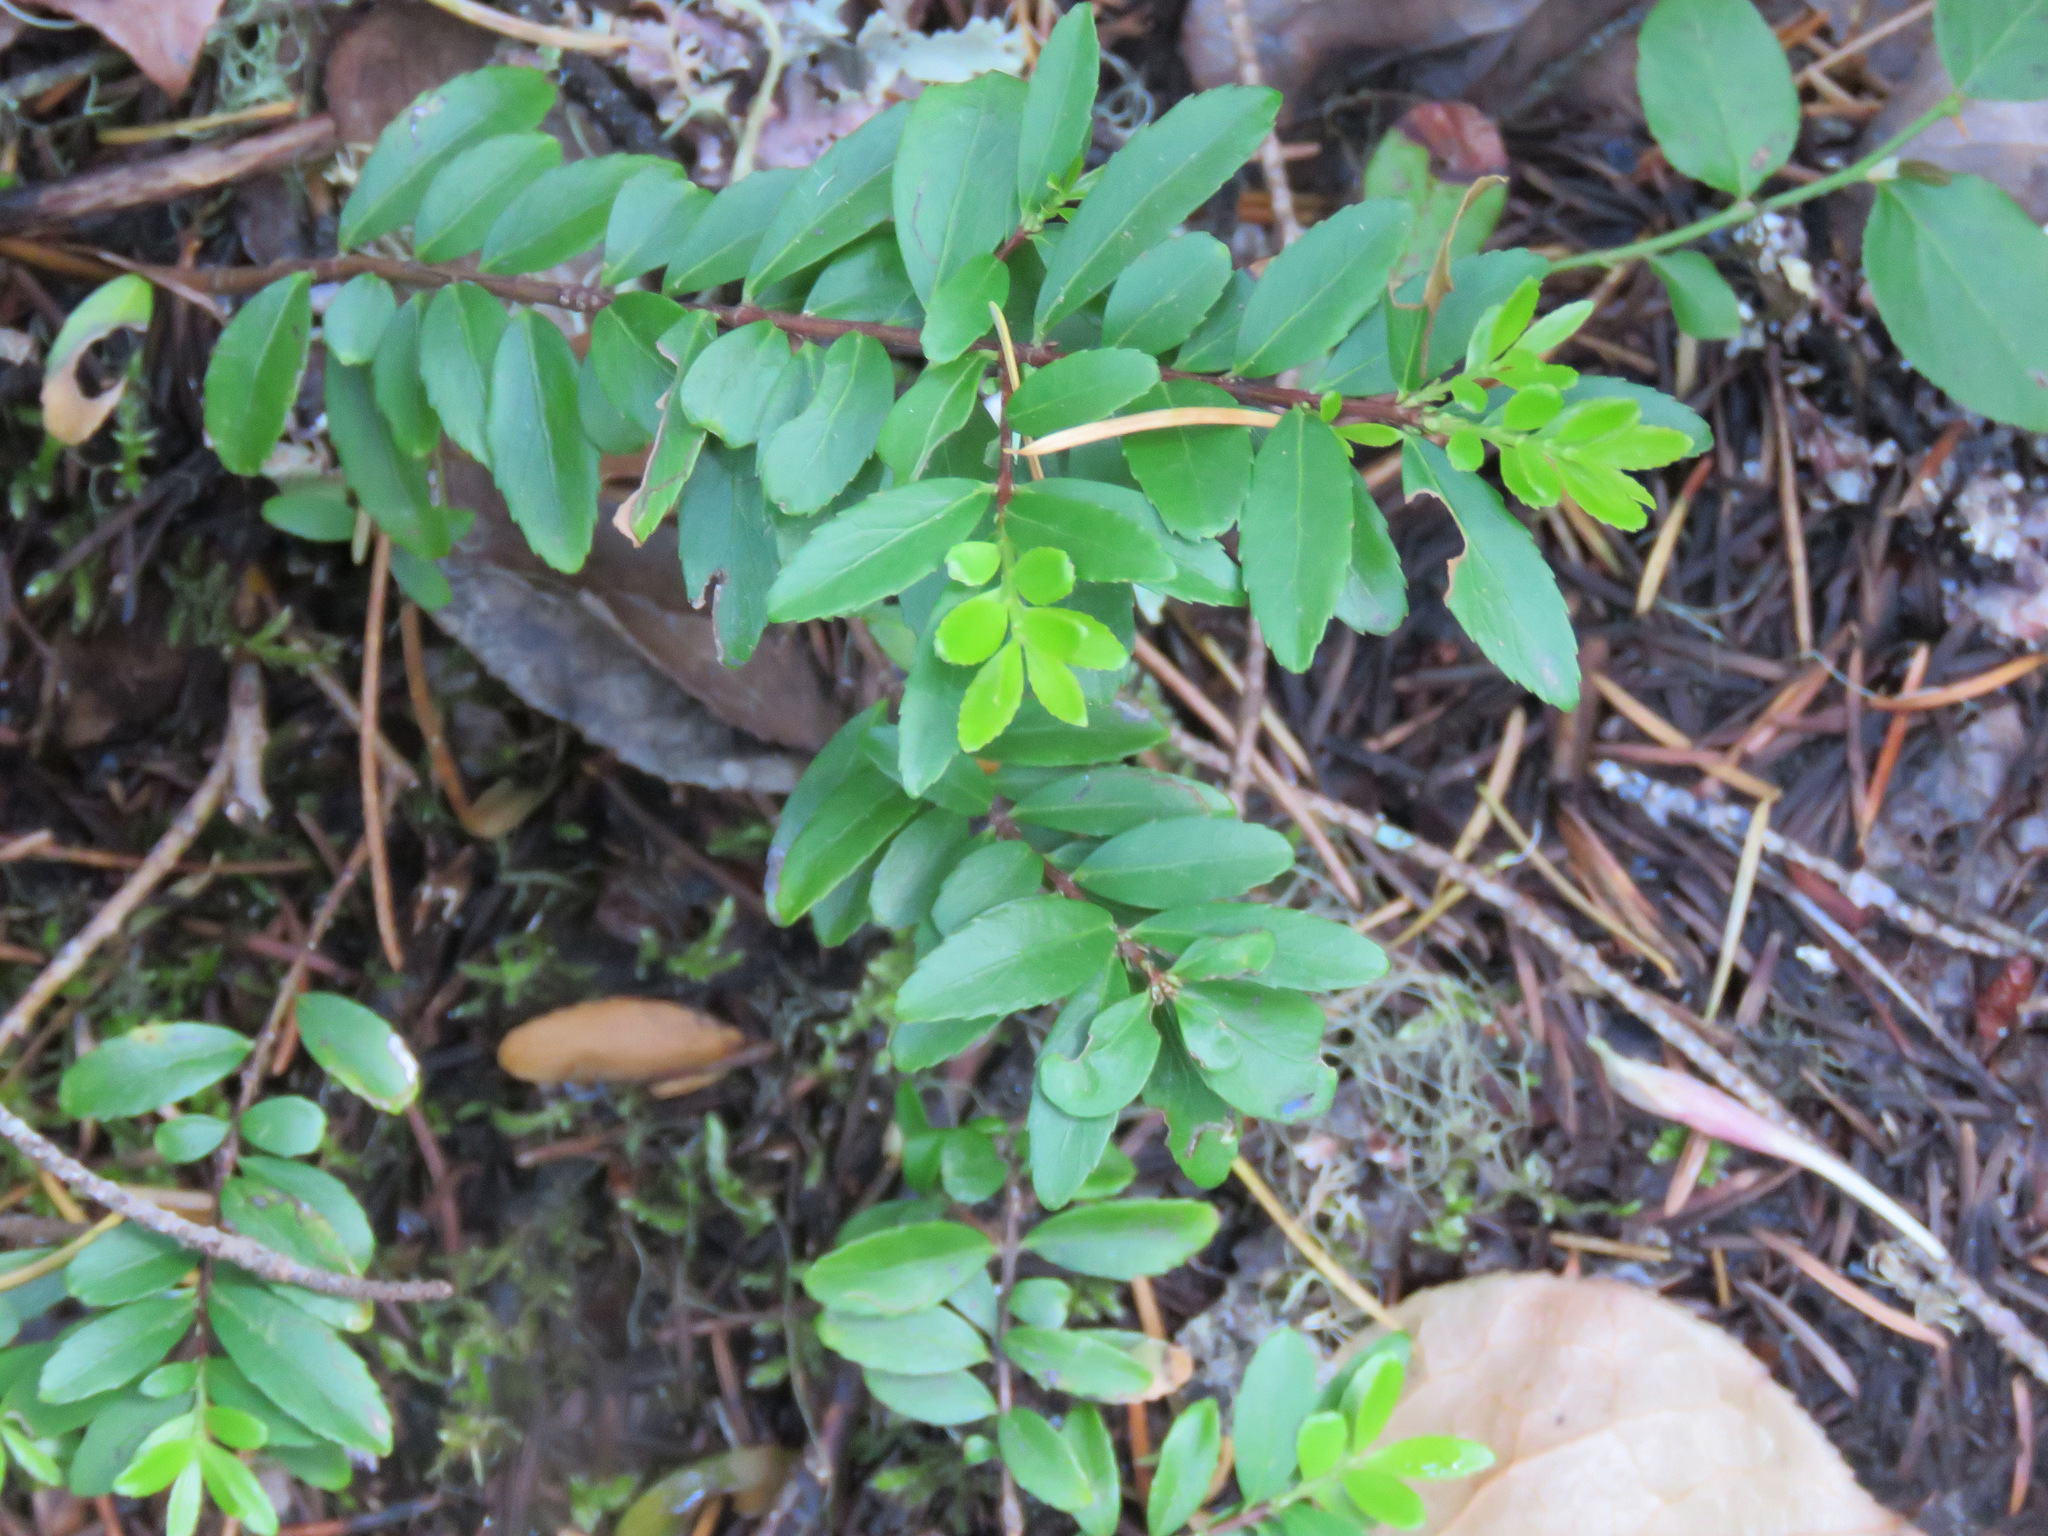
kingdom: Plantae
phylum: Tracheophyta
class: Magnoliopsida
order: Celastrales
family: Celastraceae
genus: Paxistima
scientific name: Paxistima myrsinites
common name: Mountain-lover
